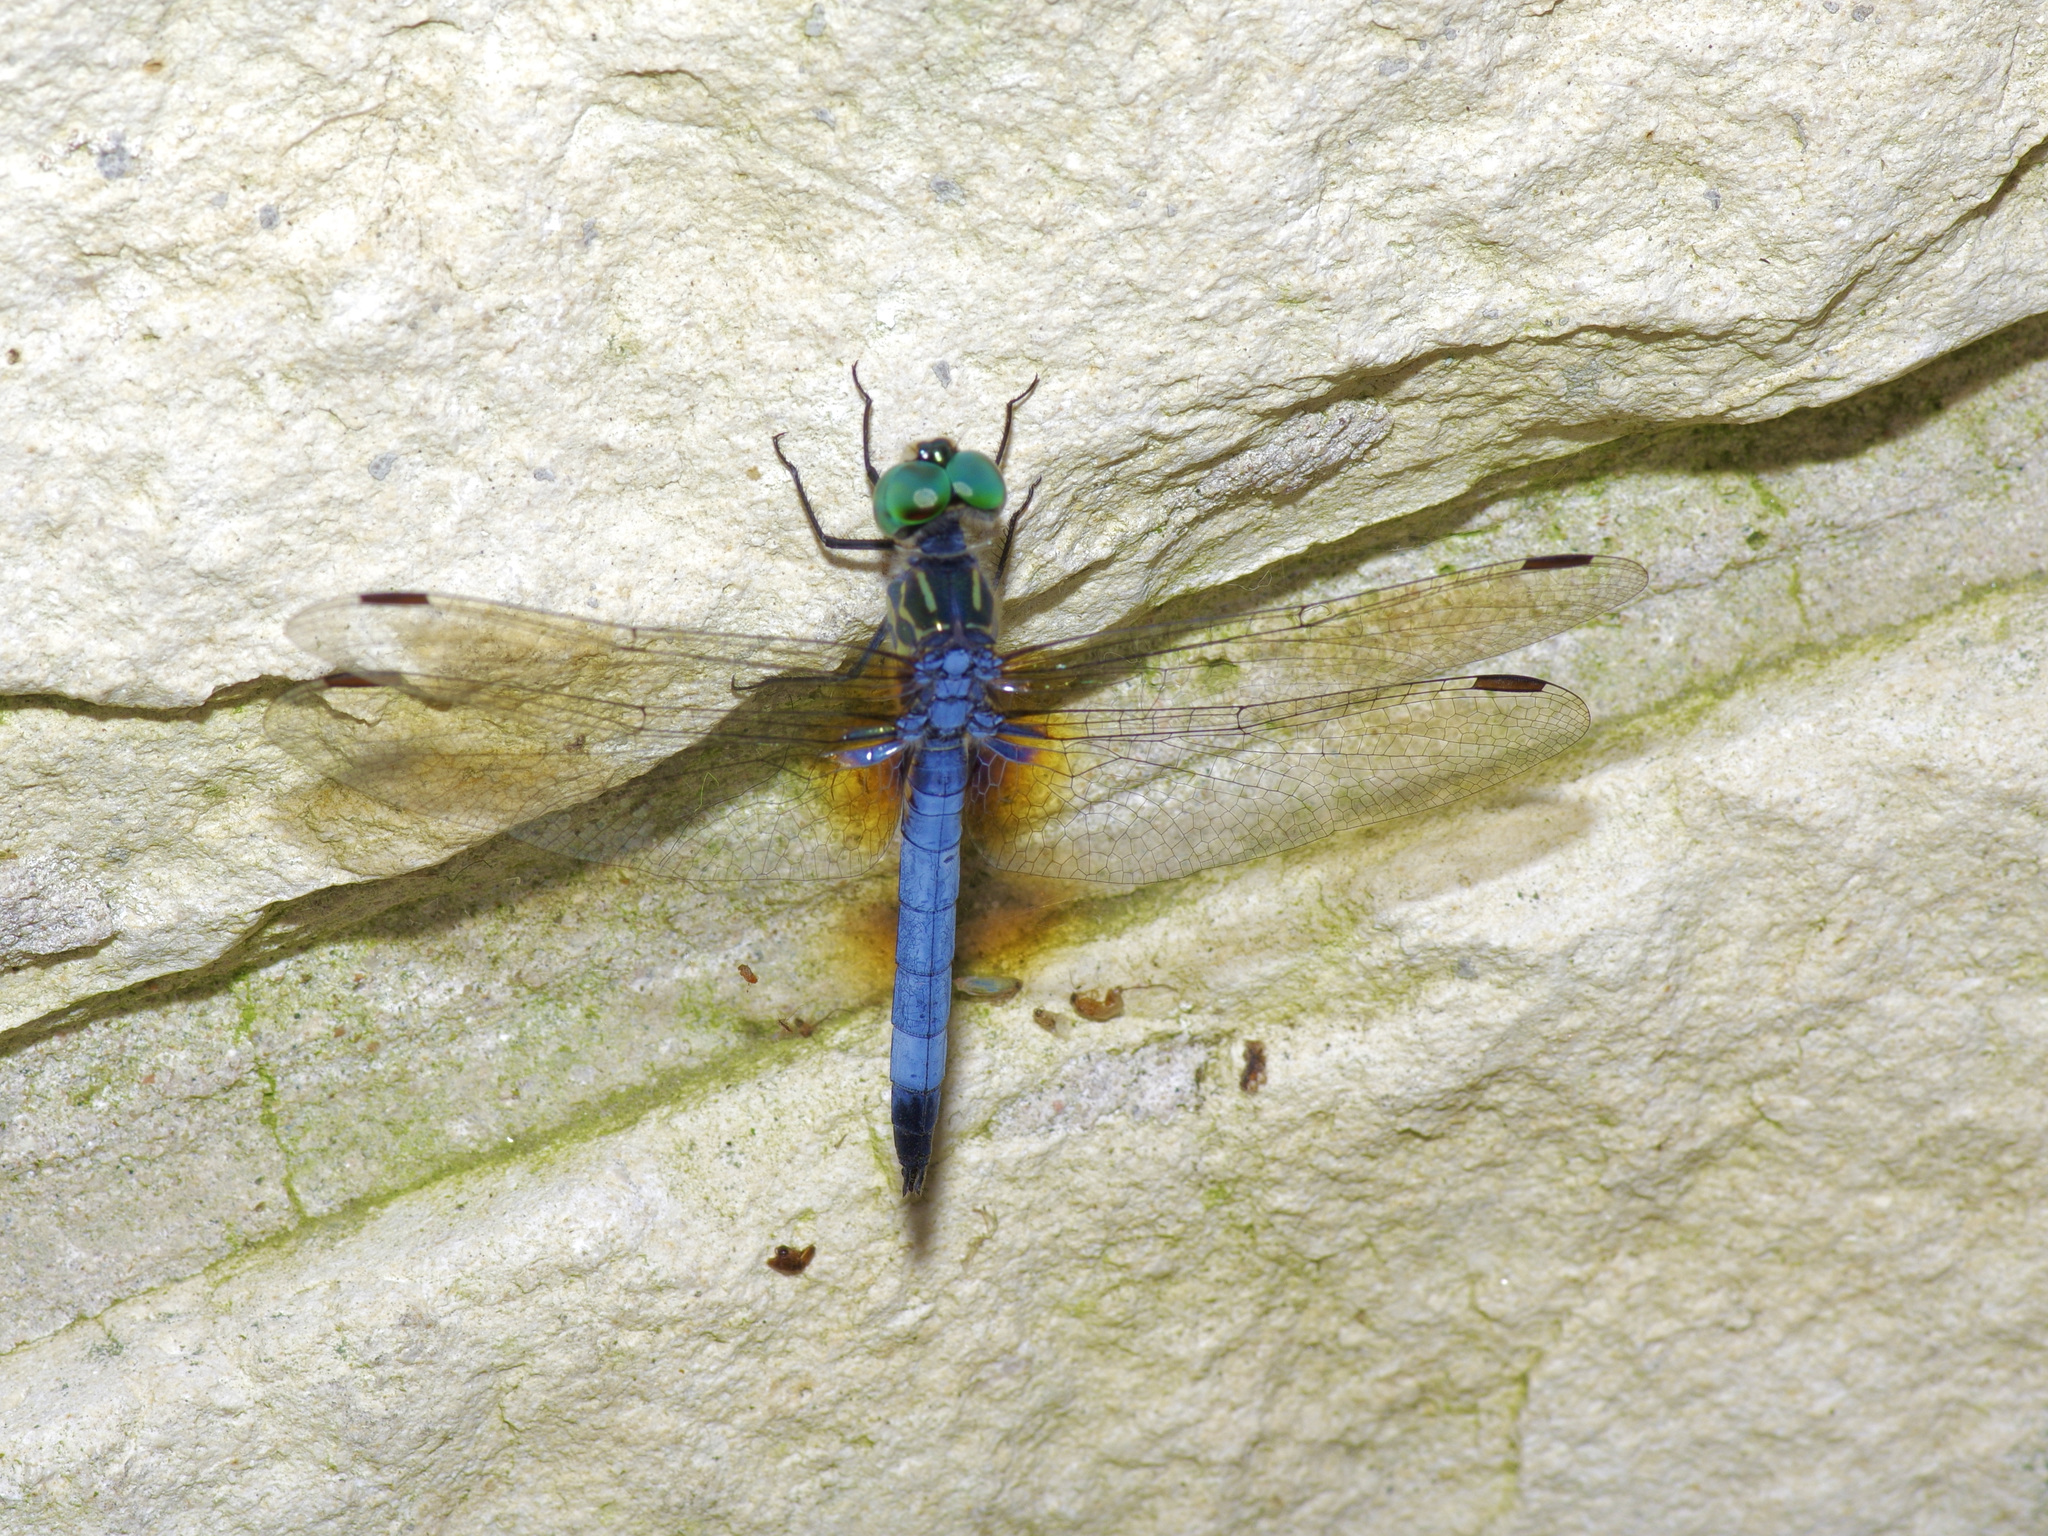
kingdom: Animalia
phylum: Arthropoda
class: Insecta
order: Odonata
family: Libellulidae
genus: Pachydiplax
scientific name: Pachydiplax longipennis
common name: Blue dasher
